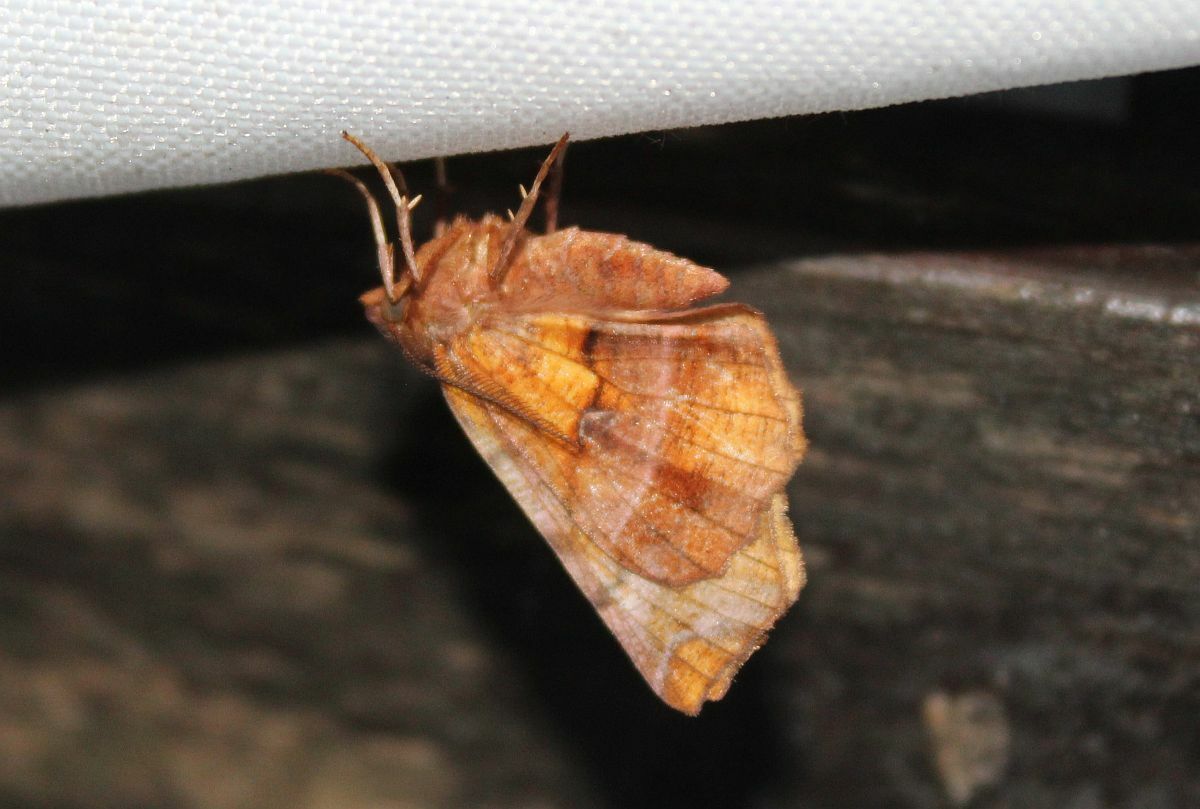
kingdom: Animalia
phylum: Arthropoda
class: Insecta
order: Lepidoptera
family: Geometridae
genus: Selenia
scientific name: Selenia dentaria
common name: Early thorn
